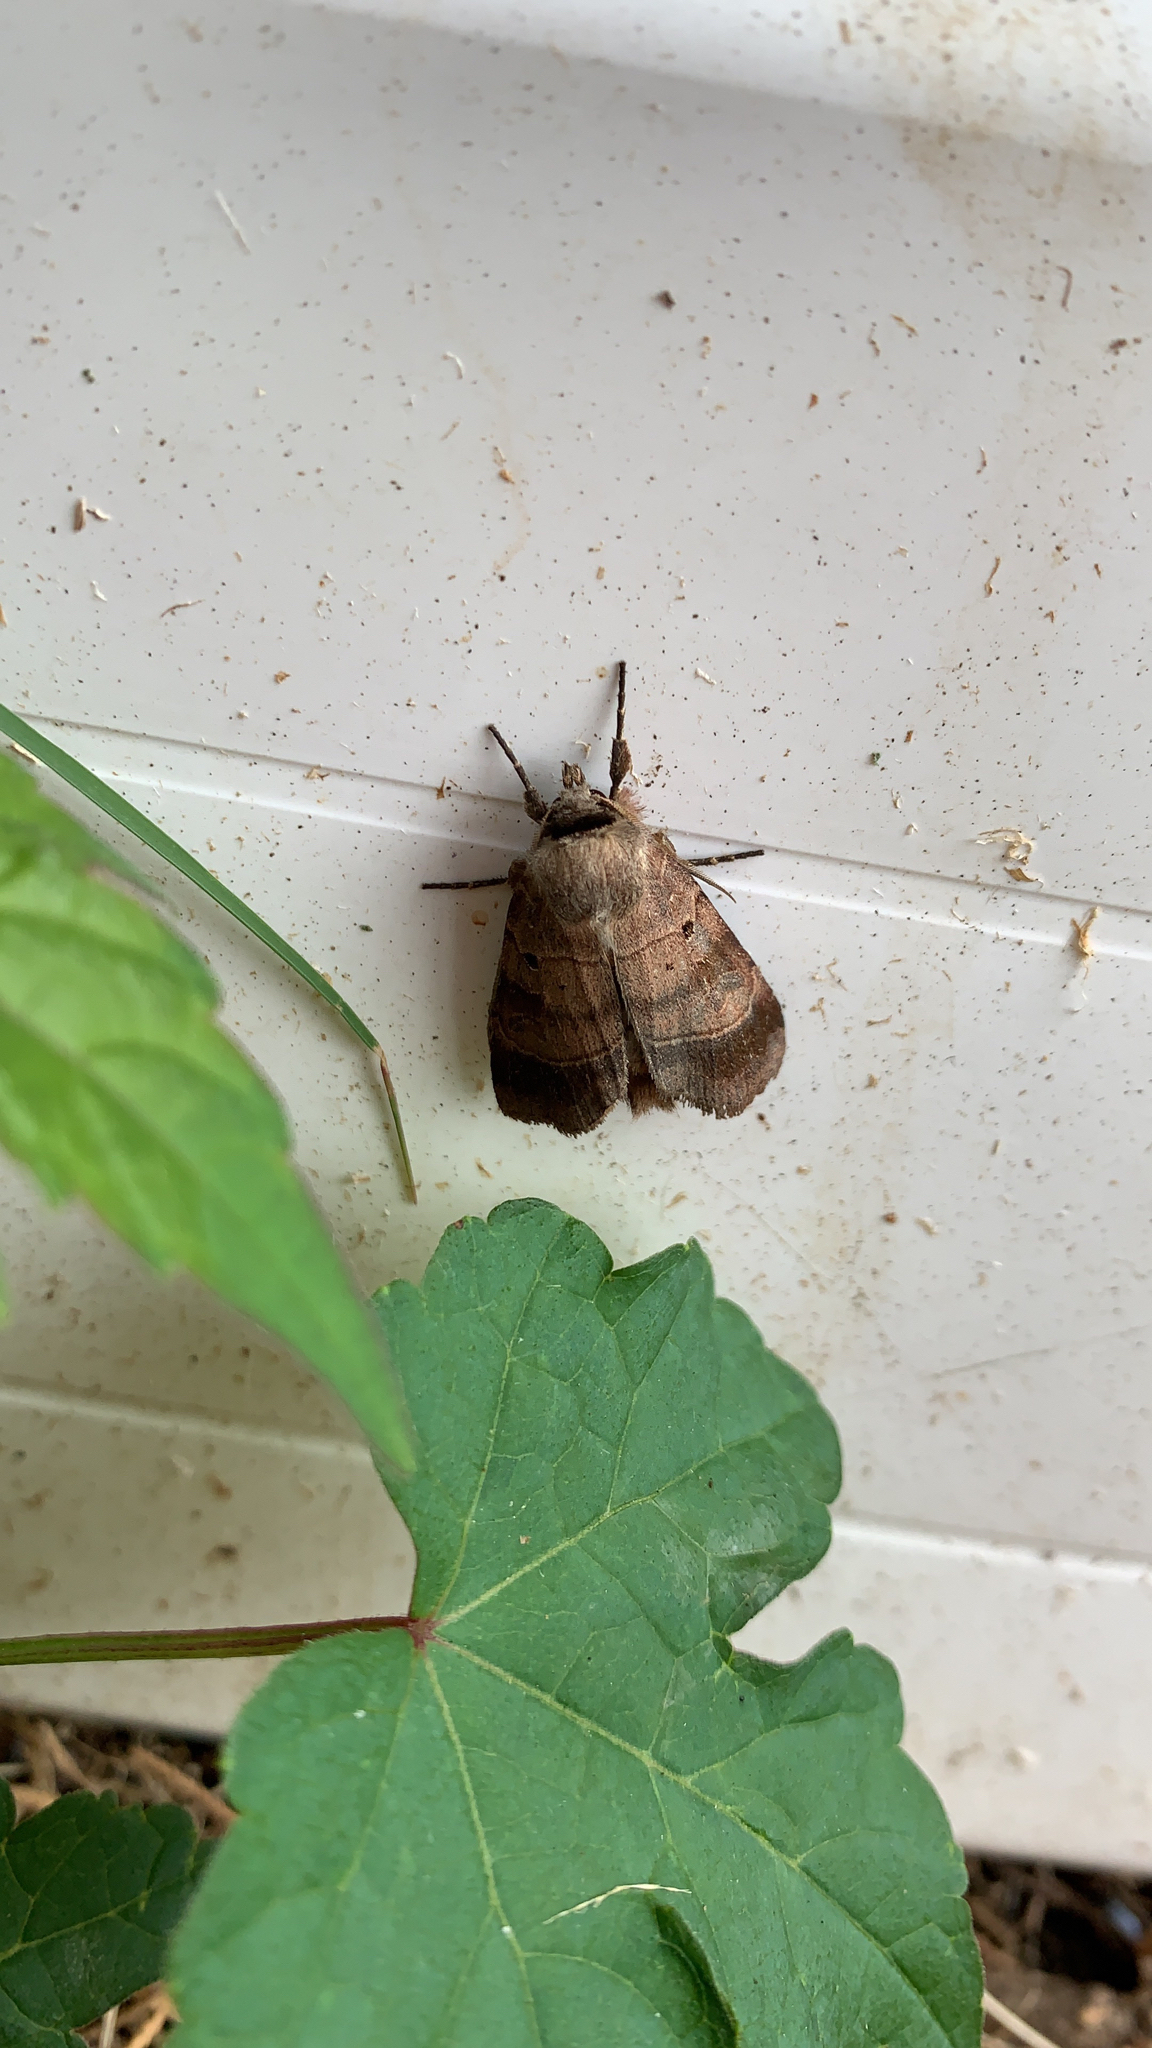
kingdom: Animalia
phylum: Arthropoda
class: Insecta
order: Lepidoptera
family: Noctuidae
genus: Agnorisma
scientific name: Agnorisma badinodis
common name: Pale-banded dart
